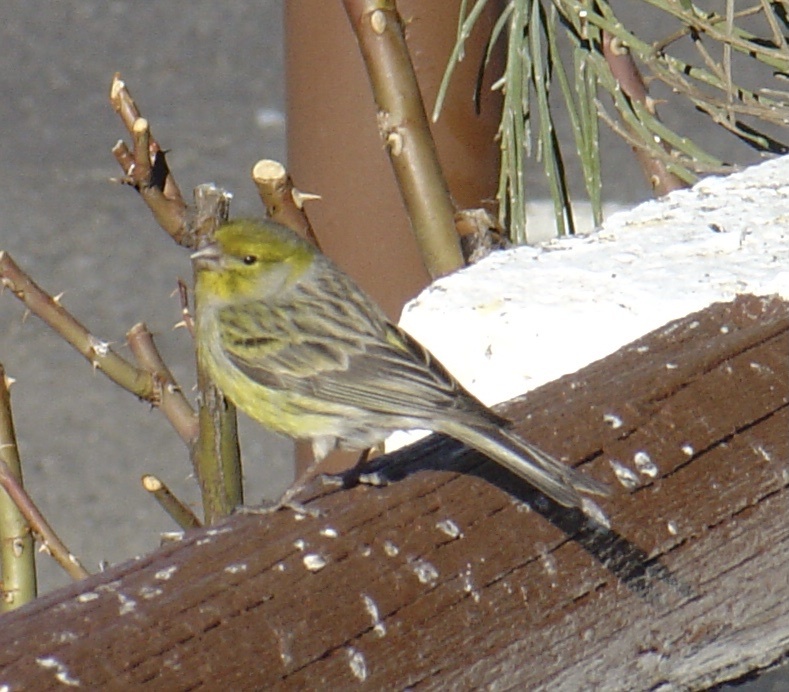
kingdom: Animalia
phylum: Chordata
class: Aves
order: Passeriformes
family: Fringillidae
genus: Serinus
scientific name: Serinus canaria
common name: Atlantic canary
